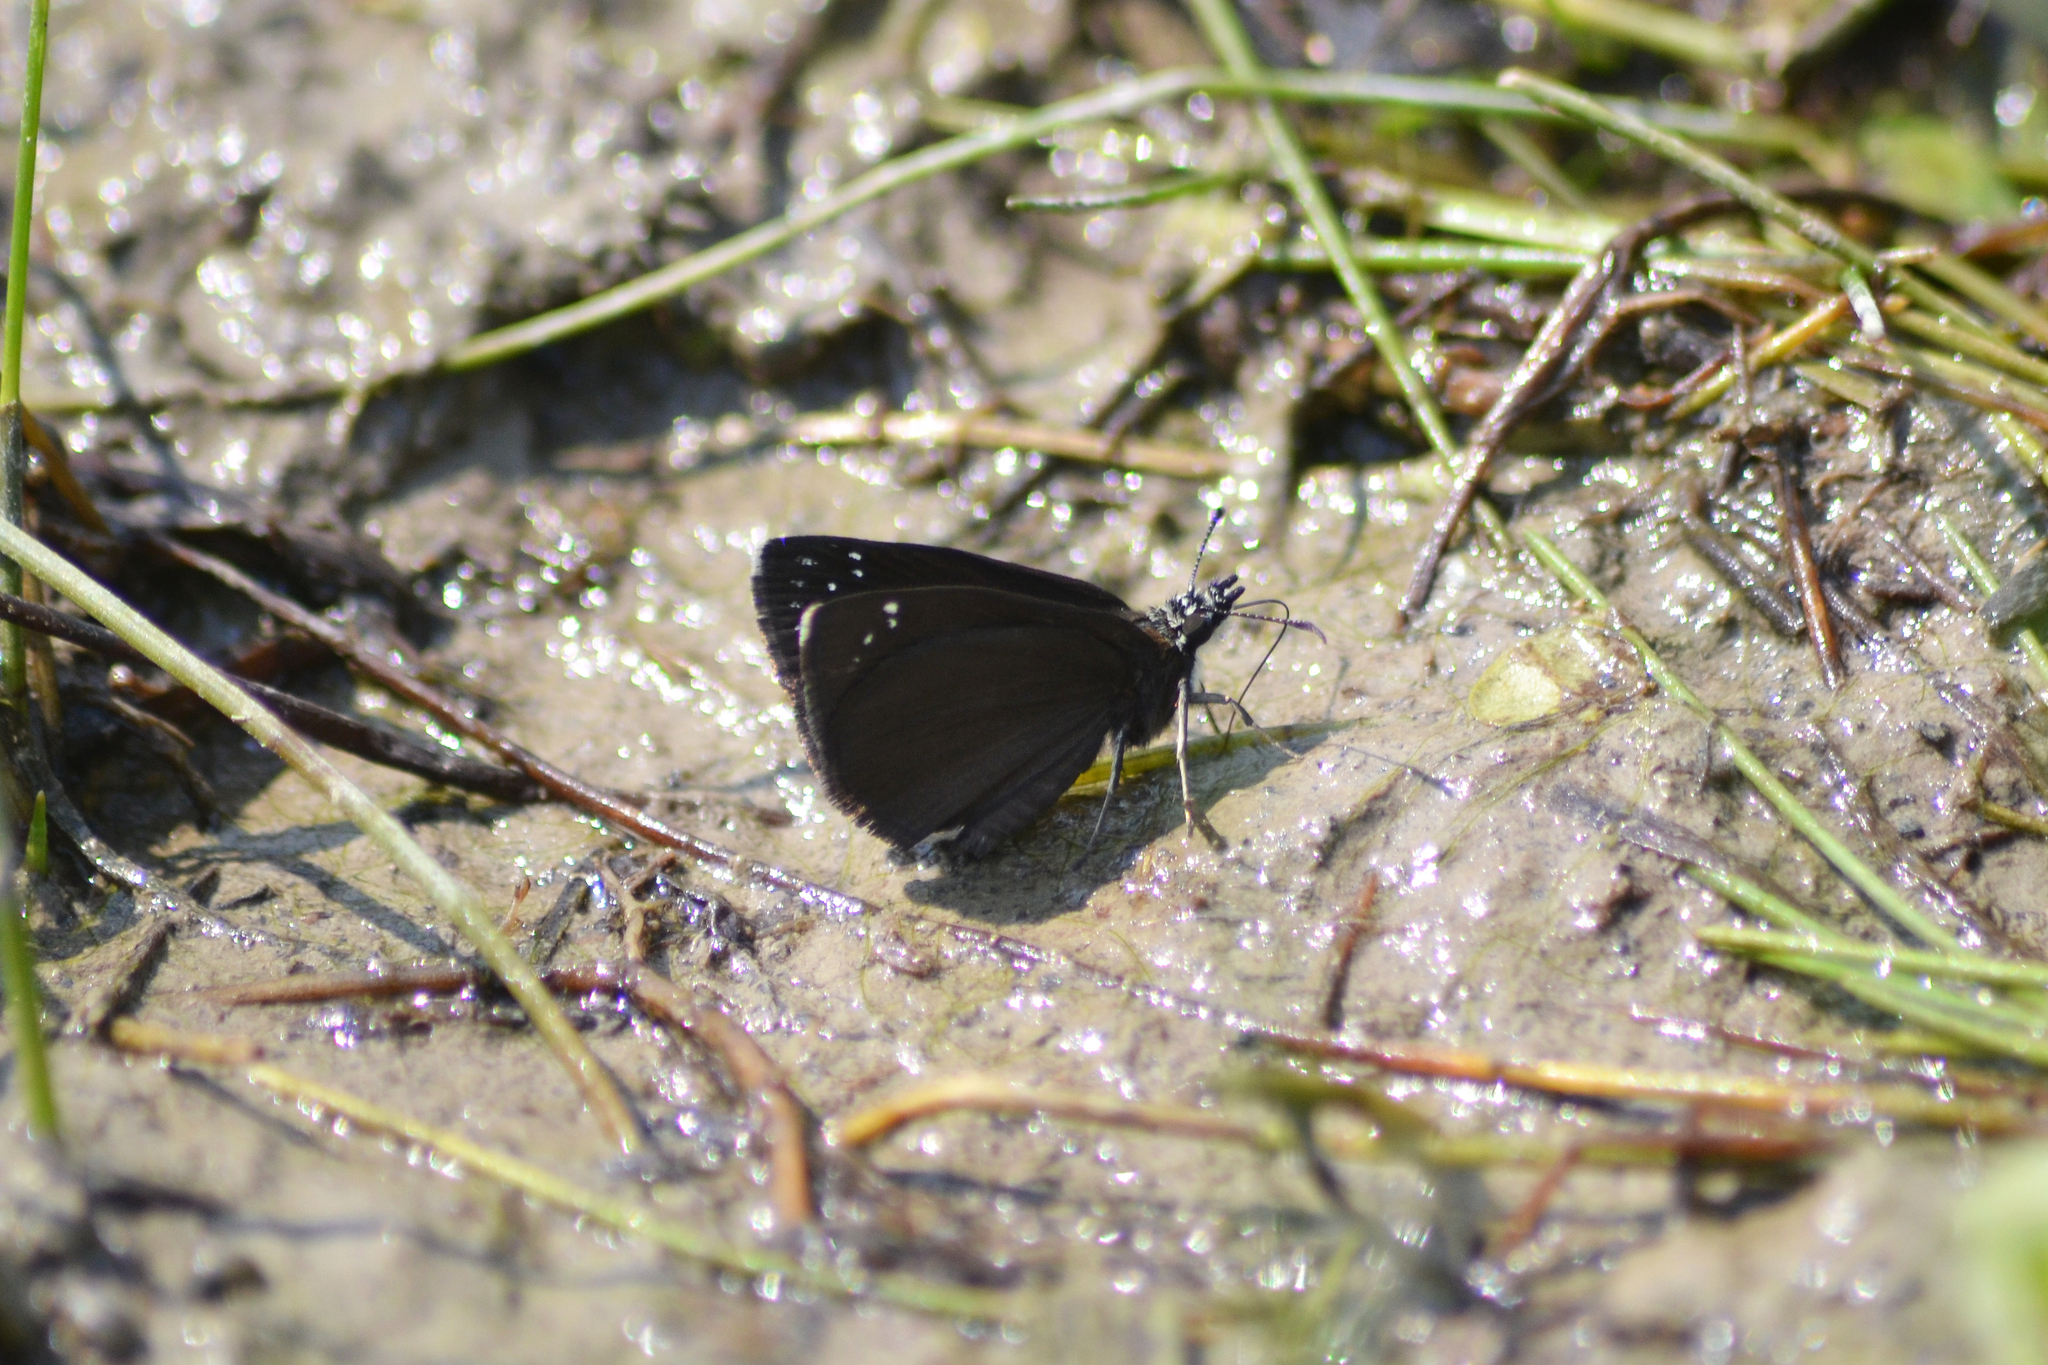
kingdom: Animalia
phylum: Arthropoda
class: Insecta
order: Lepidoptera
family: Hesperiidae
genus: Pholisora
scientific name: Pholisora catullus
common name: Common sootywing
